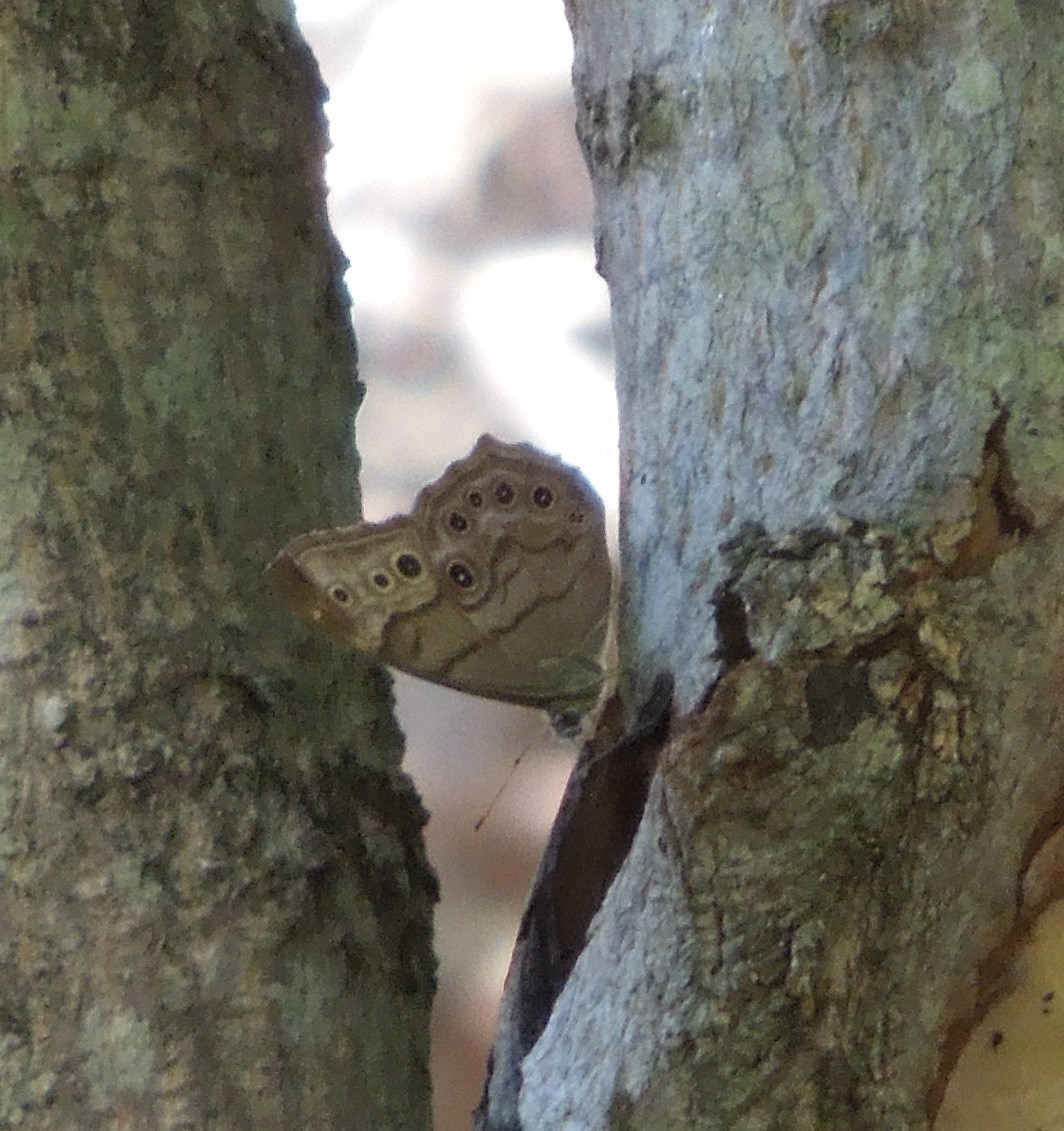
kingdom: Animalia
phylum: Arthropoda
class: Insecta
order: Lepidoptera
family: Nymphalidae
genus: Lethe
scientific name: Lethe anthedon
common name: Northern pearly-eye
